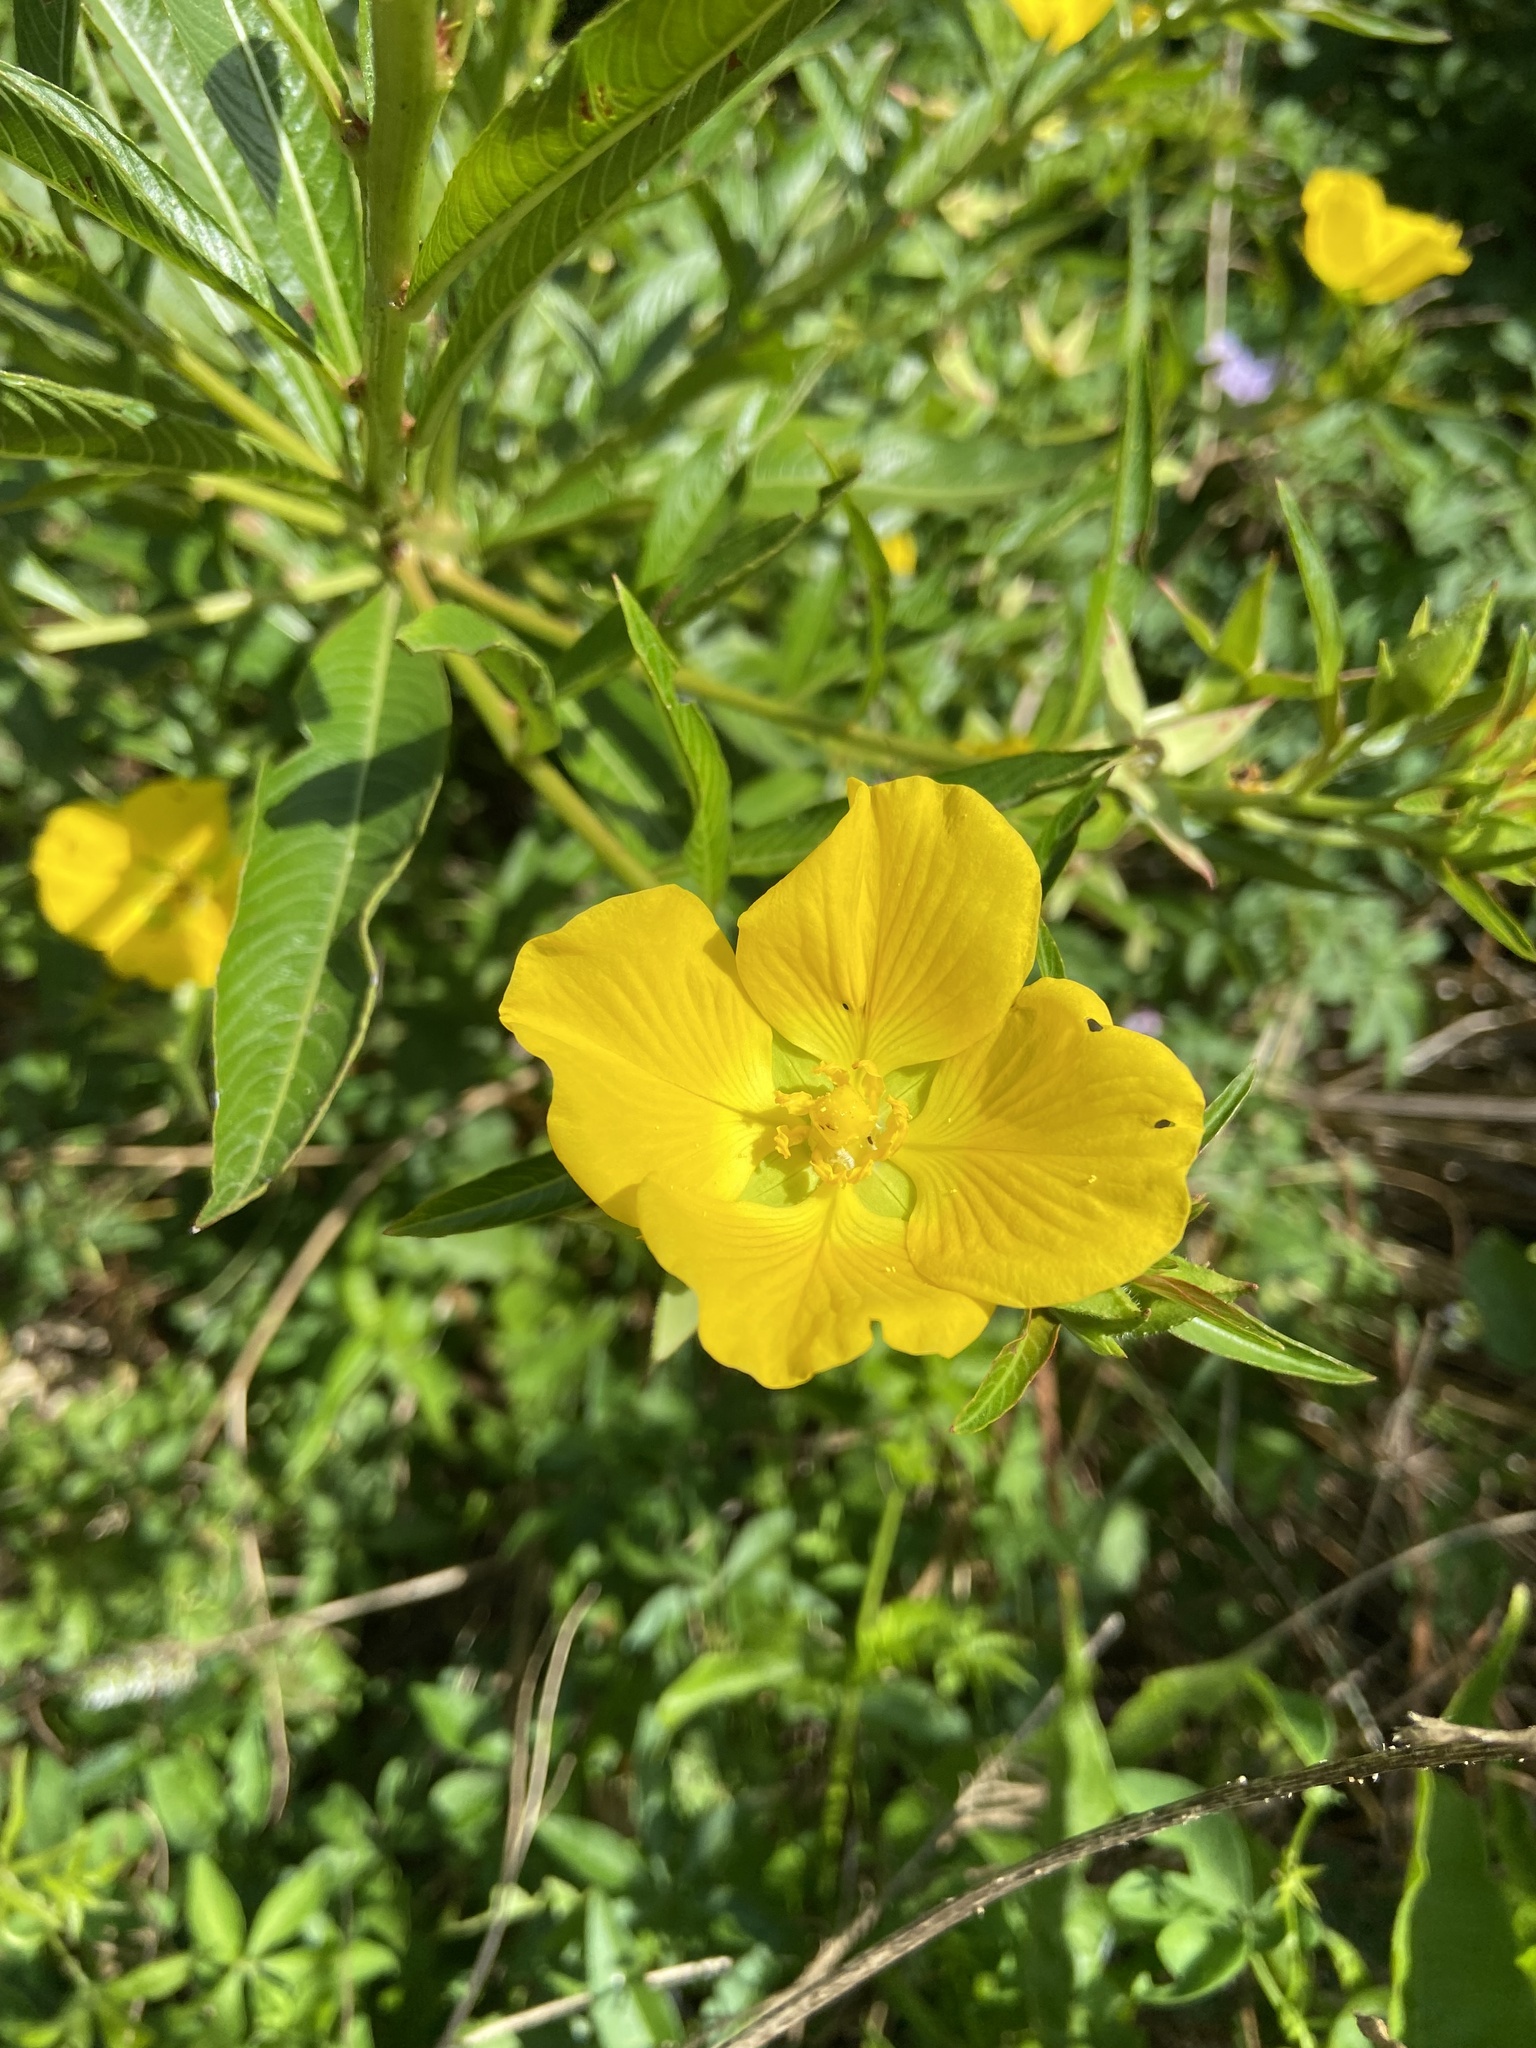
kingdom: Plantae
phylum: Tracheophyta
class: Magnoliopsida
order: Myrtales
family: Onagraceae
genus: Ludwigia
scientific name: Ludwigia elegans
